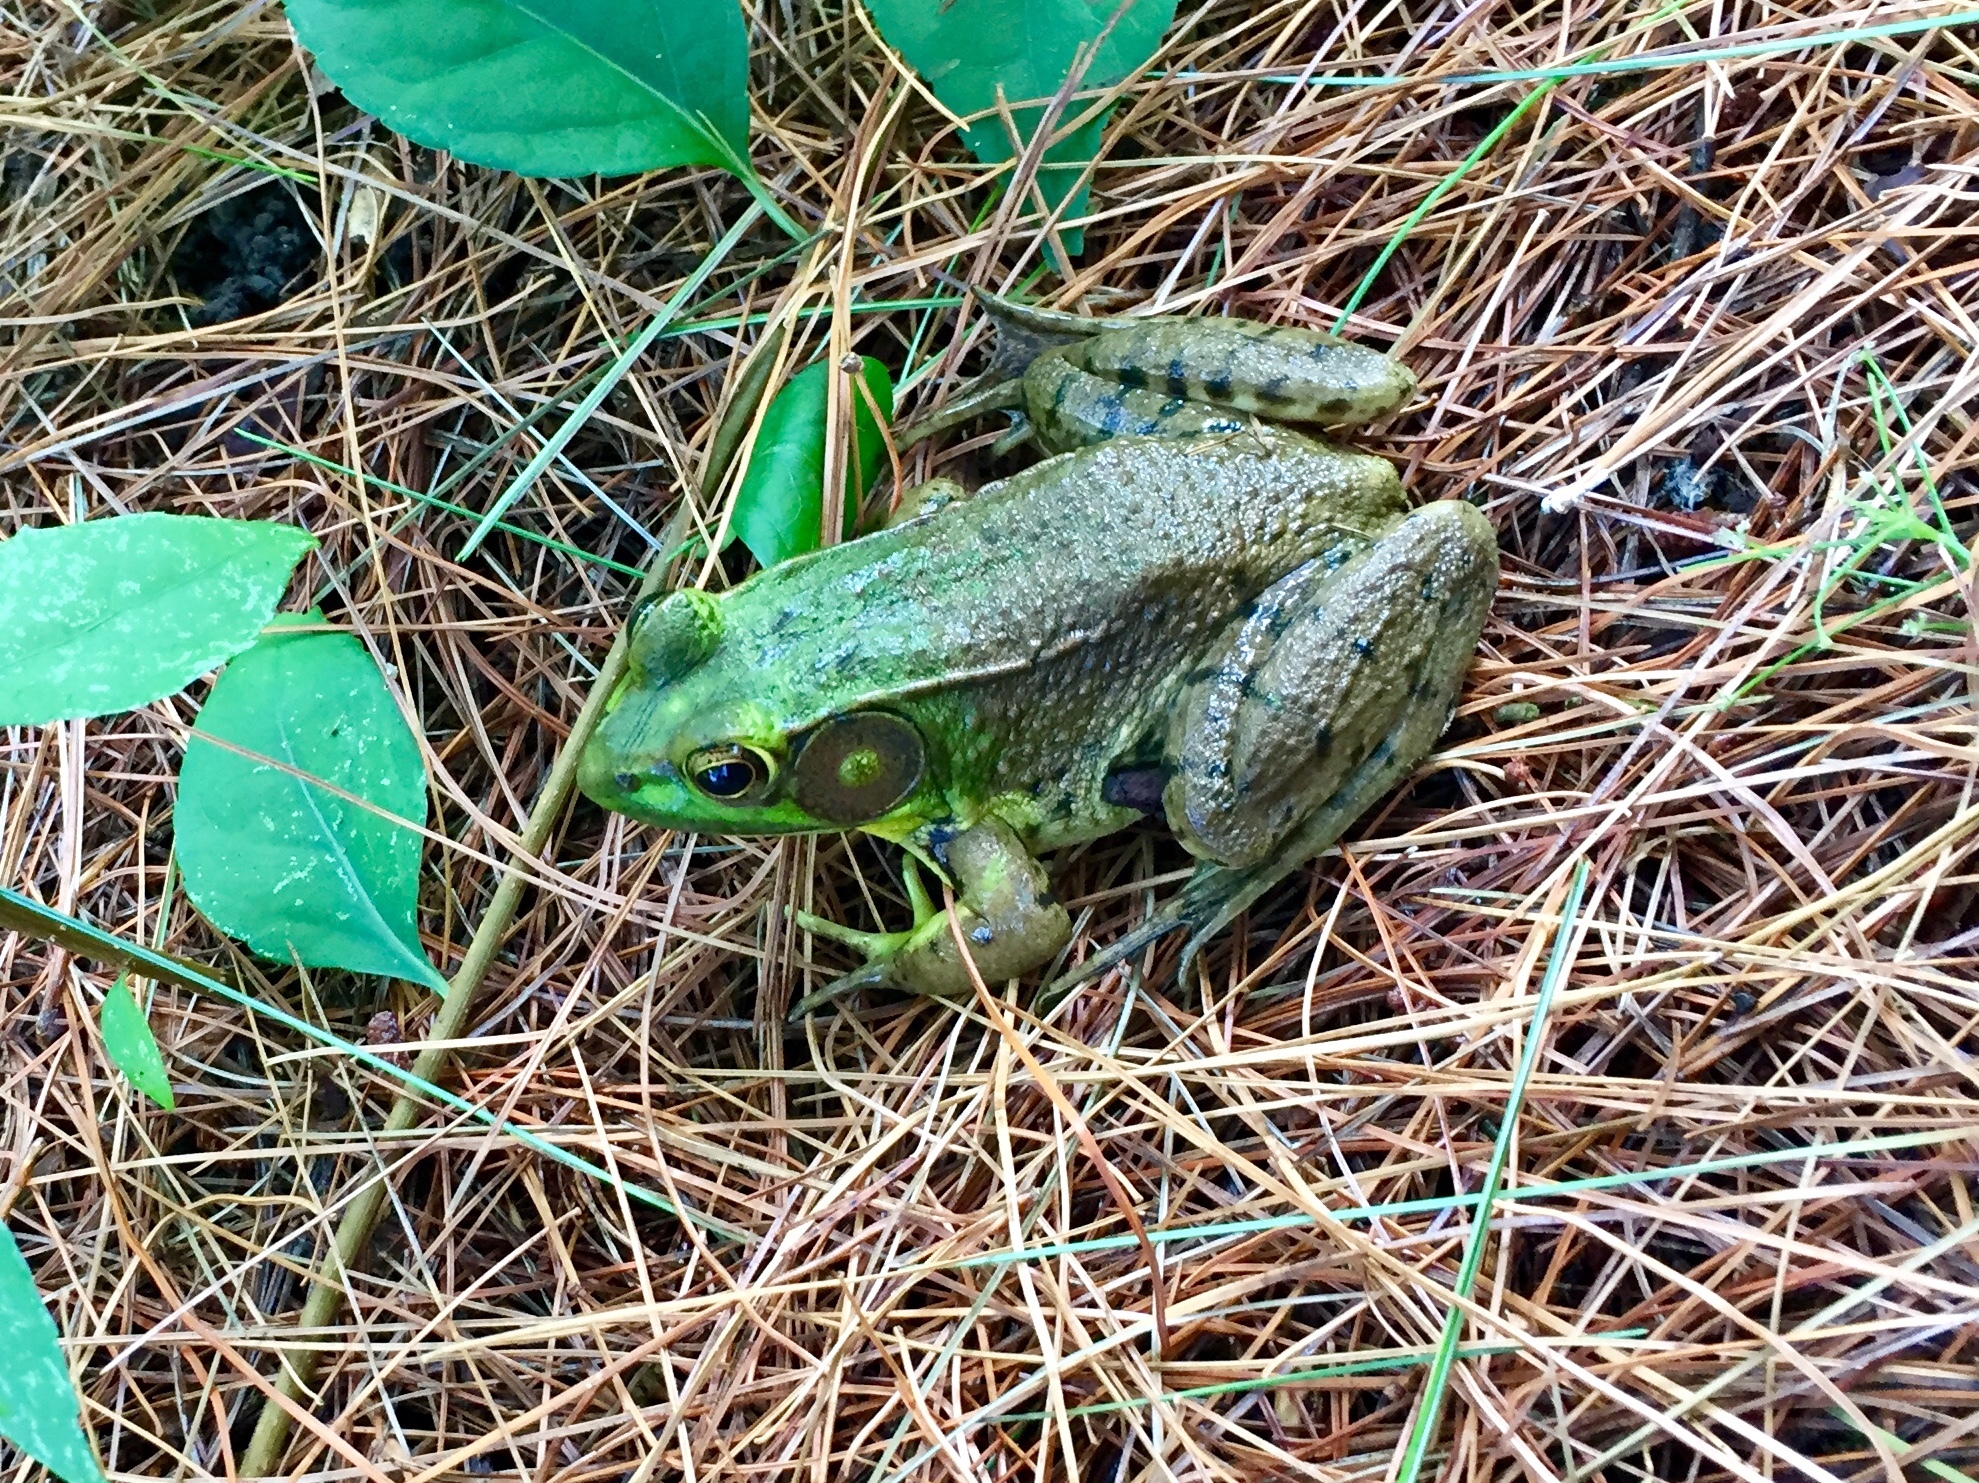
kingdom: Animalia
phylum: Chordata
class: Amphibia
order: Anura
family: Ranidae
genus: Lithobates
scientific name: Lithobates clamitans
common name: Green frog
